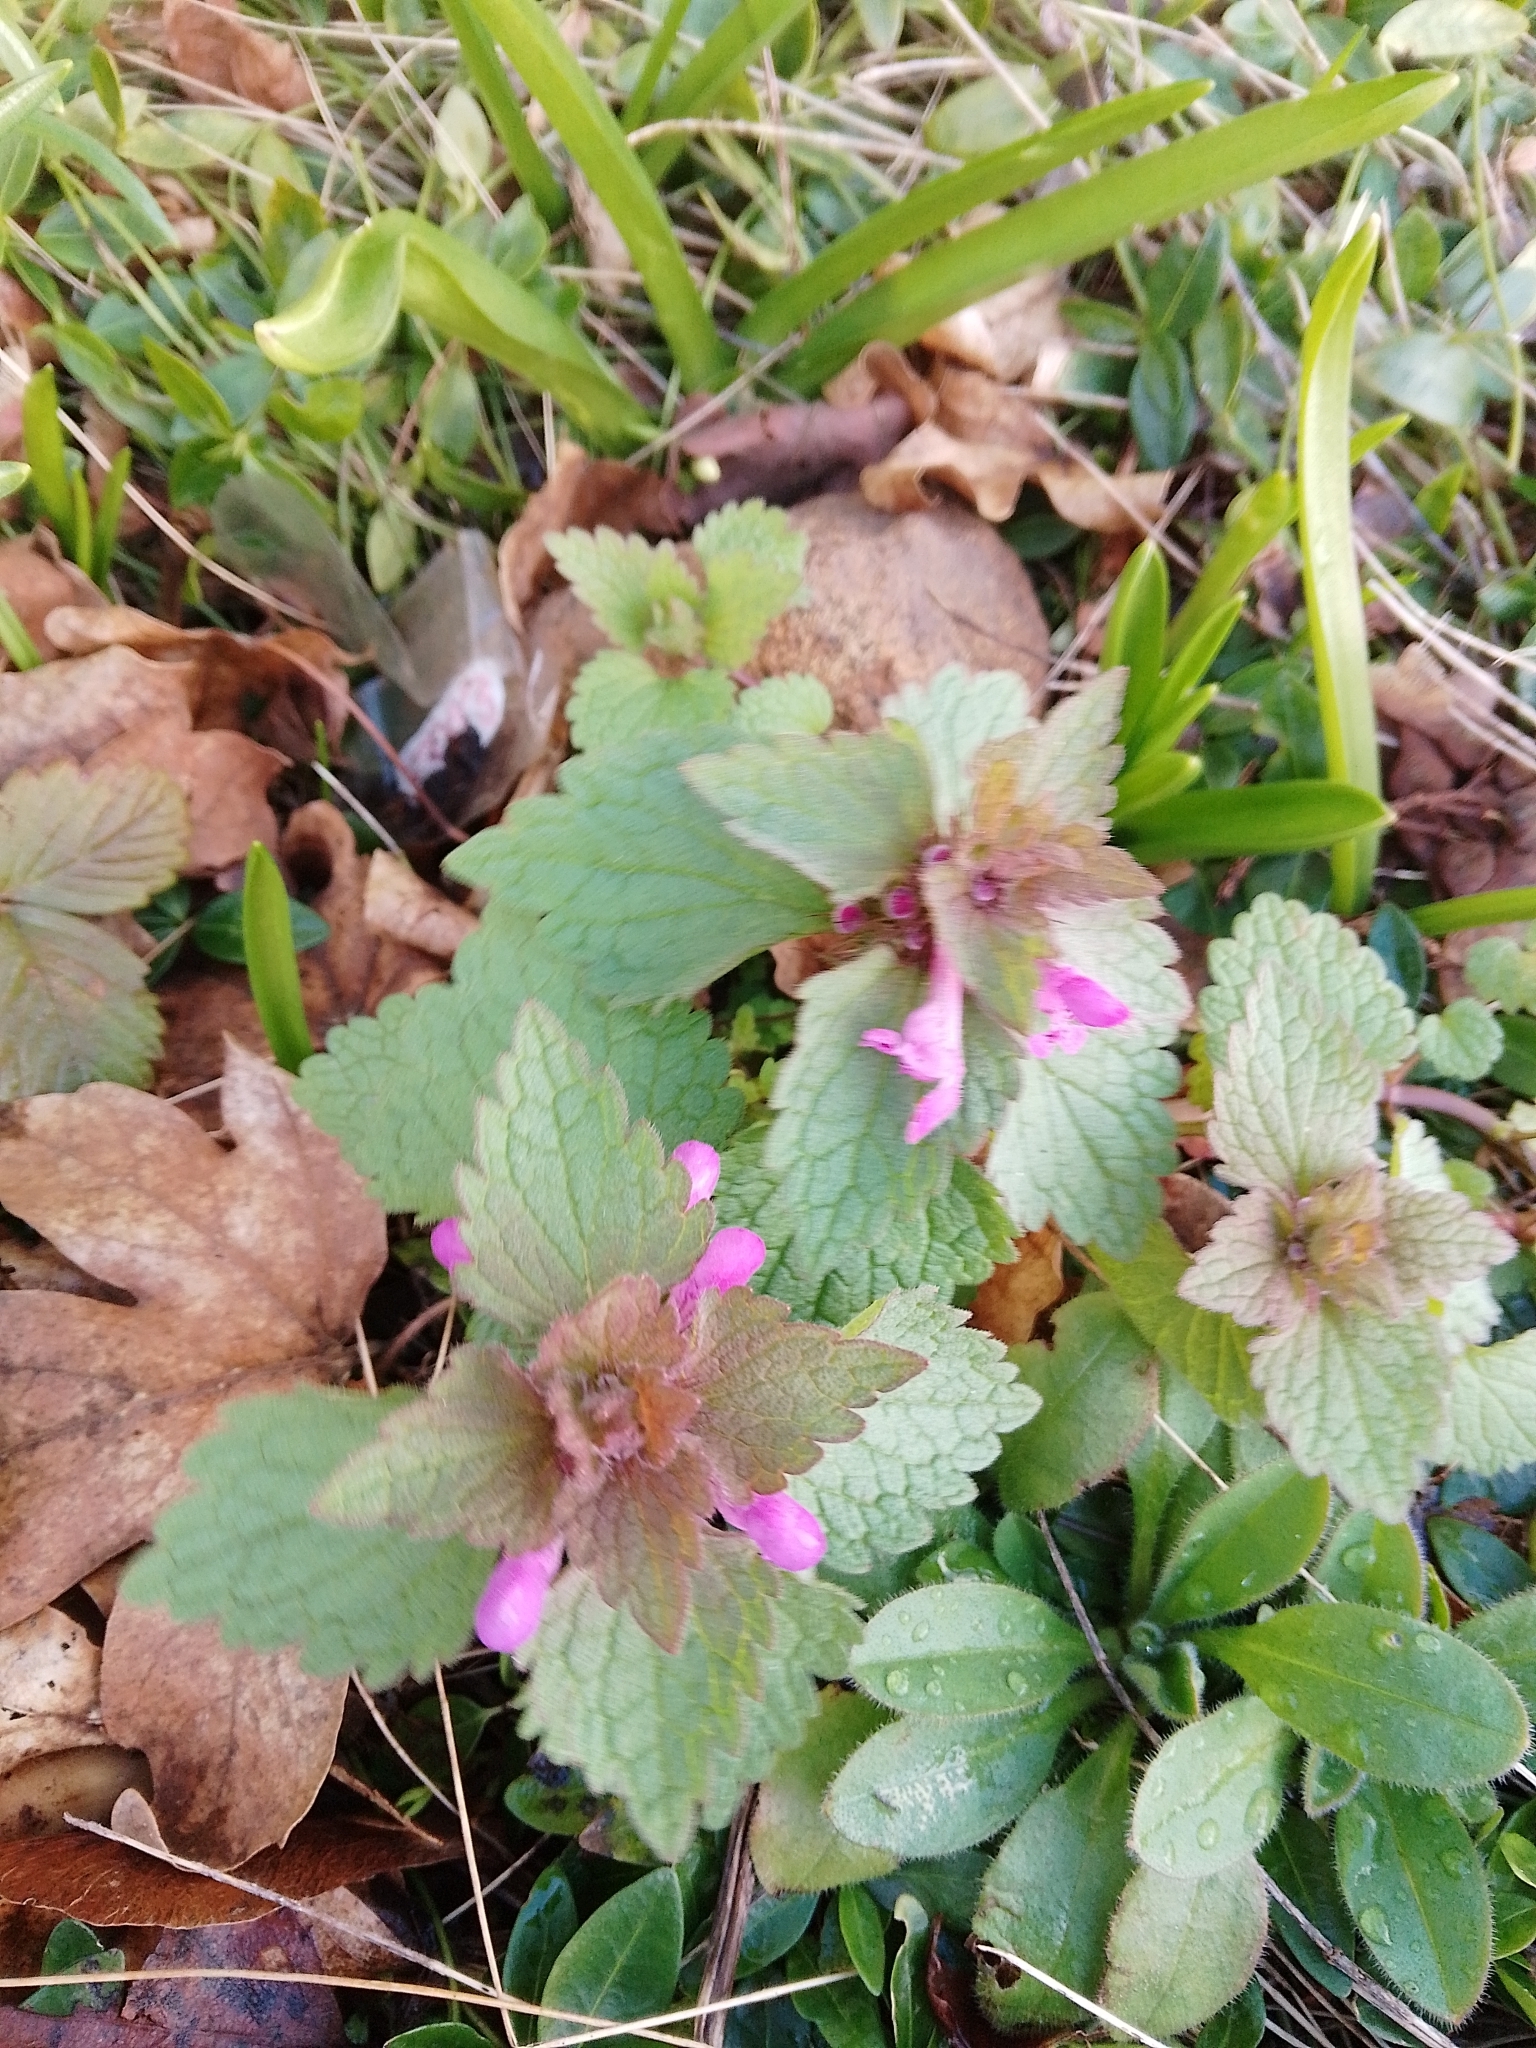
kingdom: Plantae
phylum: Tracheophyta
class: Magnoliopsida
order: Lamiales
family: Lamiaceae
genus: Lamium
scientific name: Lamium purpureum
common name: Red dead-nettle
